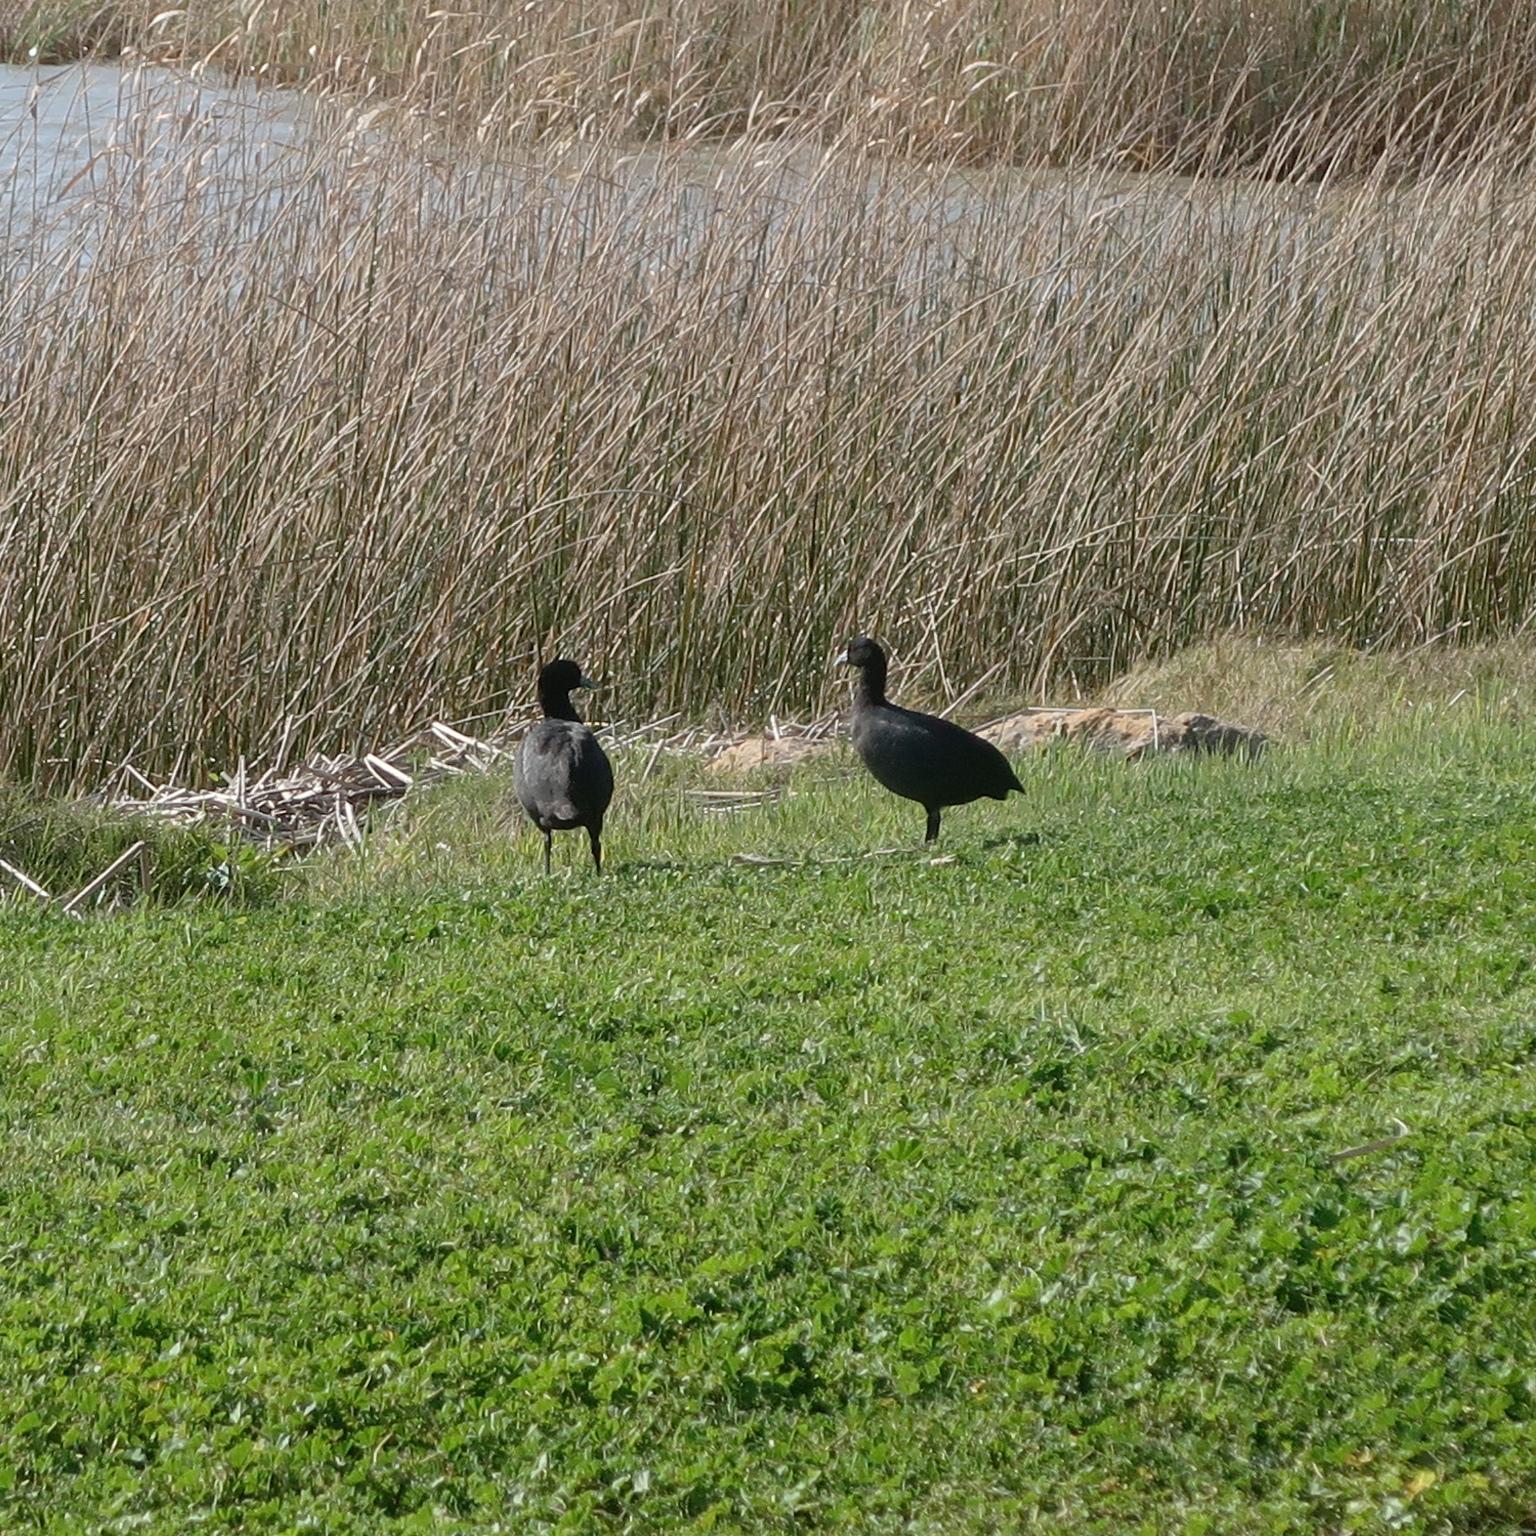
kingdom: Animalia
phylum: Chordata
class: Aves
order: Gruiformes
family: Rallidae
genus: Fulica
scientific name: Fulica atra
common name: Eurasian coot
